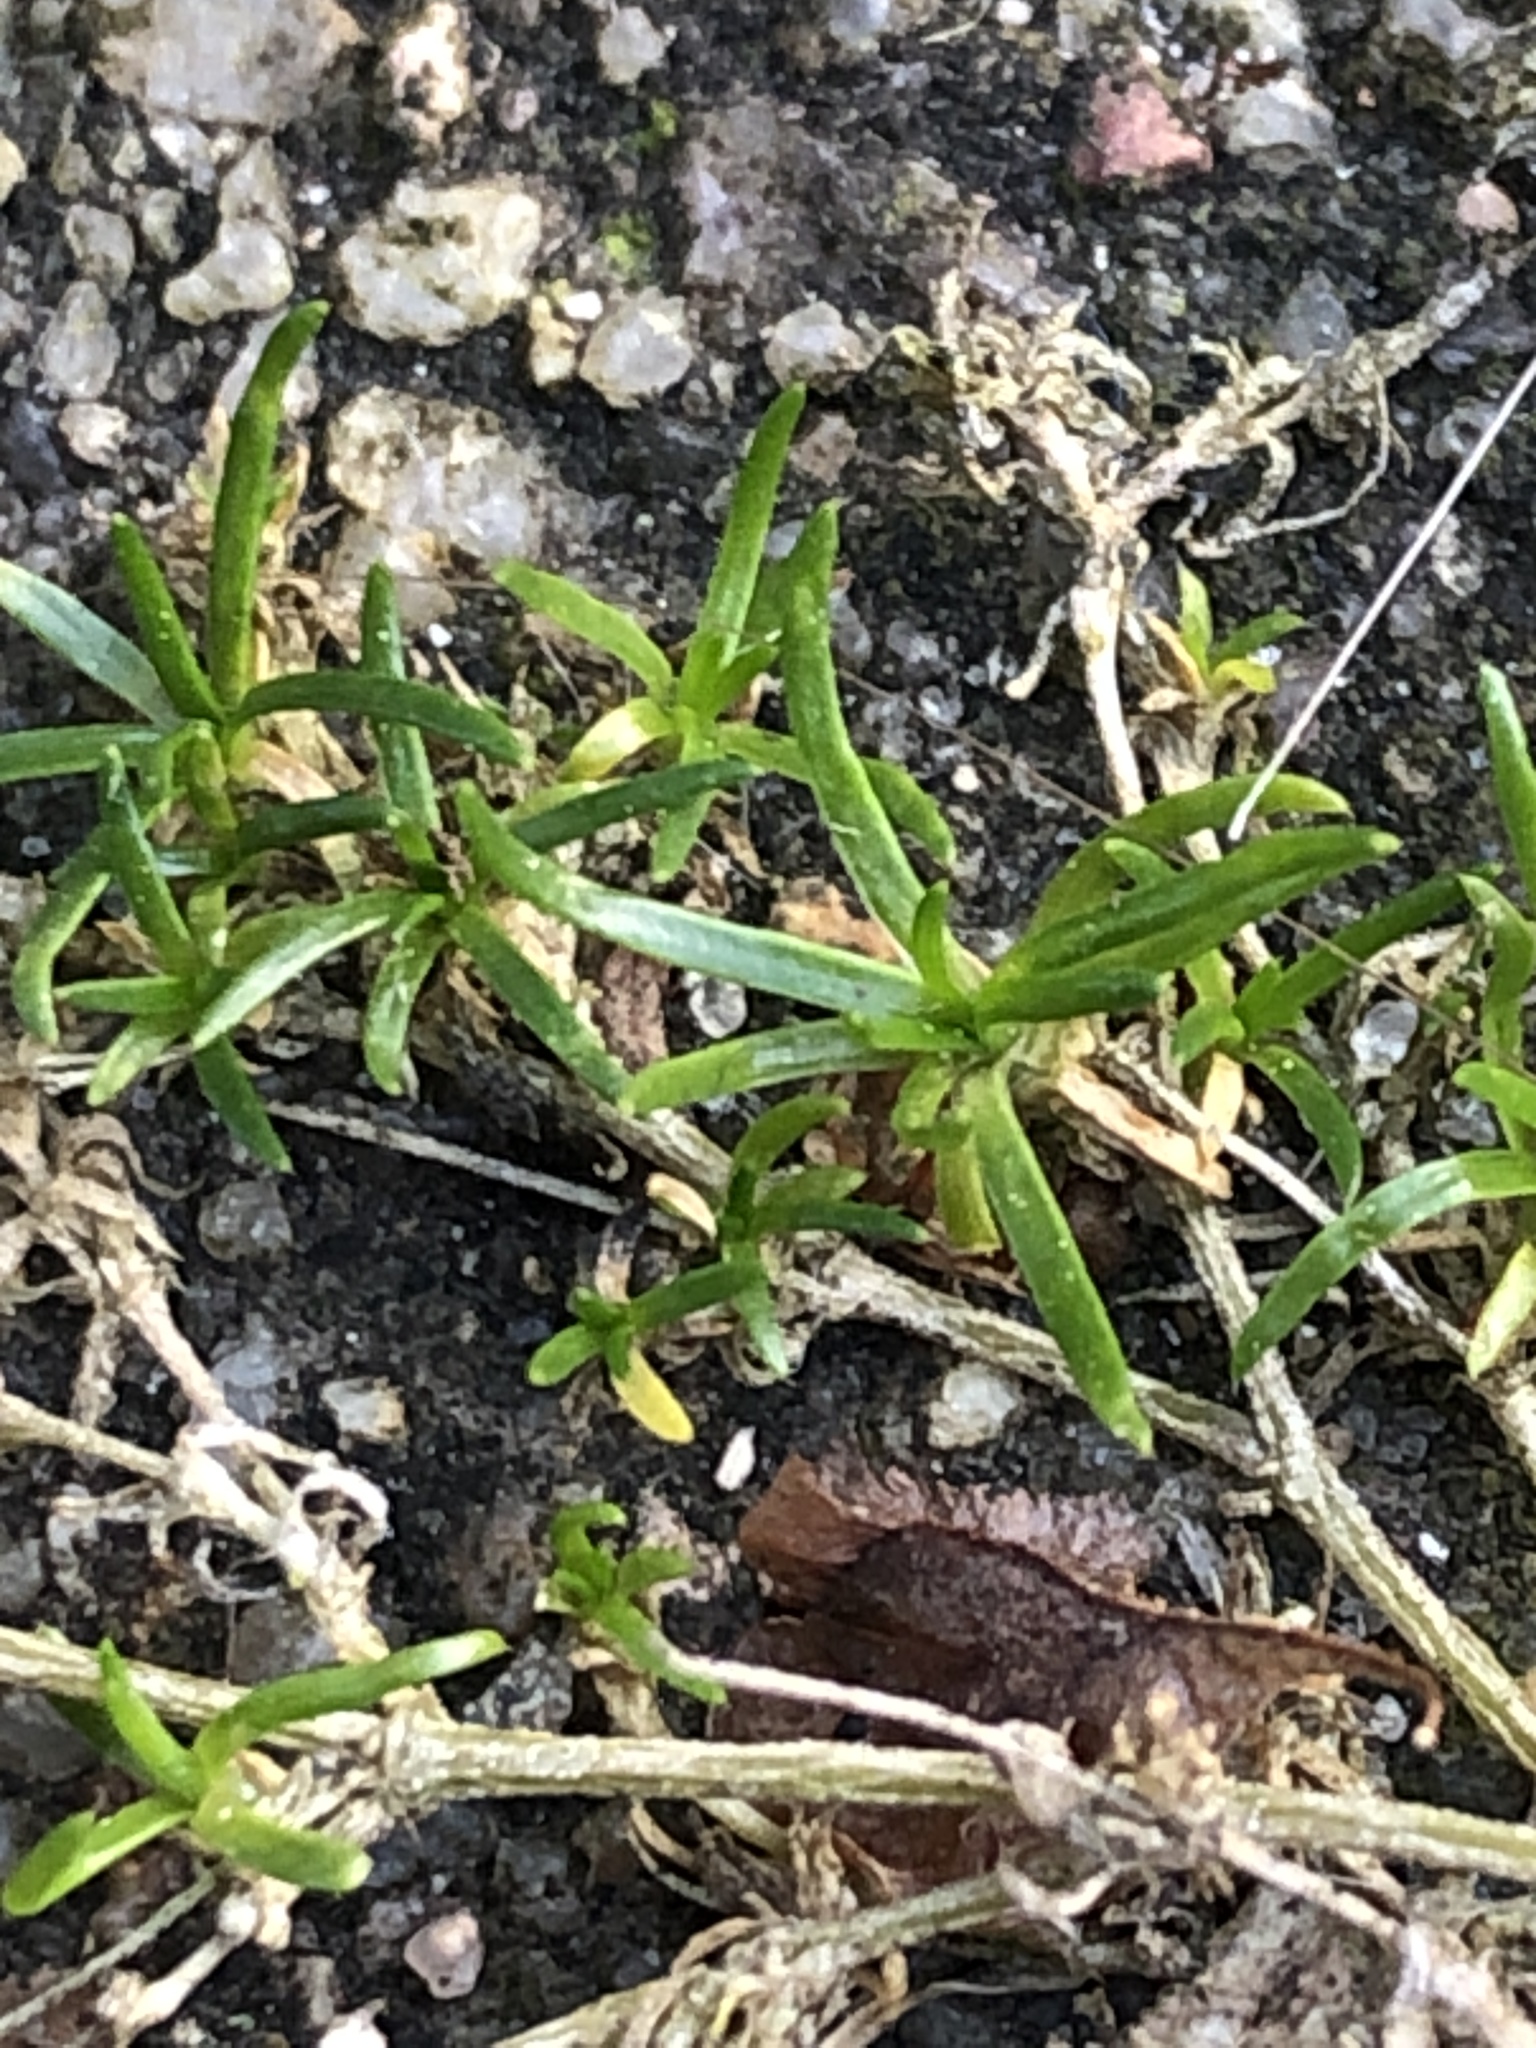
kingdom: Plantae
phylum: Tracheophyta
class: Magnoliopsida
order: Caryophyllales
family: Caryophyllaceae
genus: Sagina
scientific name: Sagina procumbens
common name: Procumbent pearlwort
